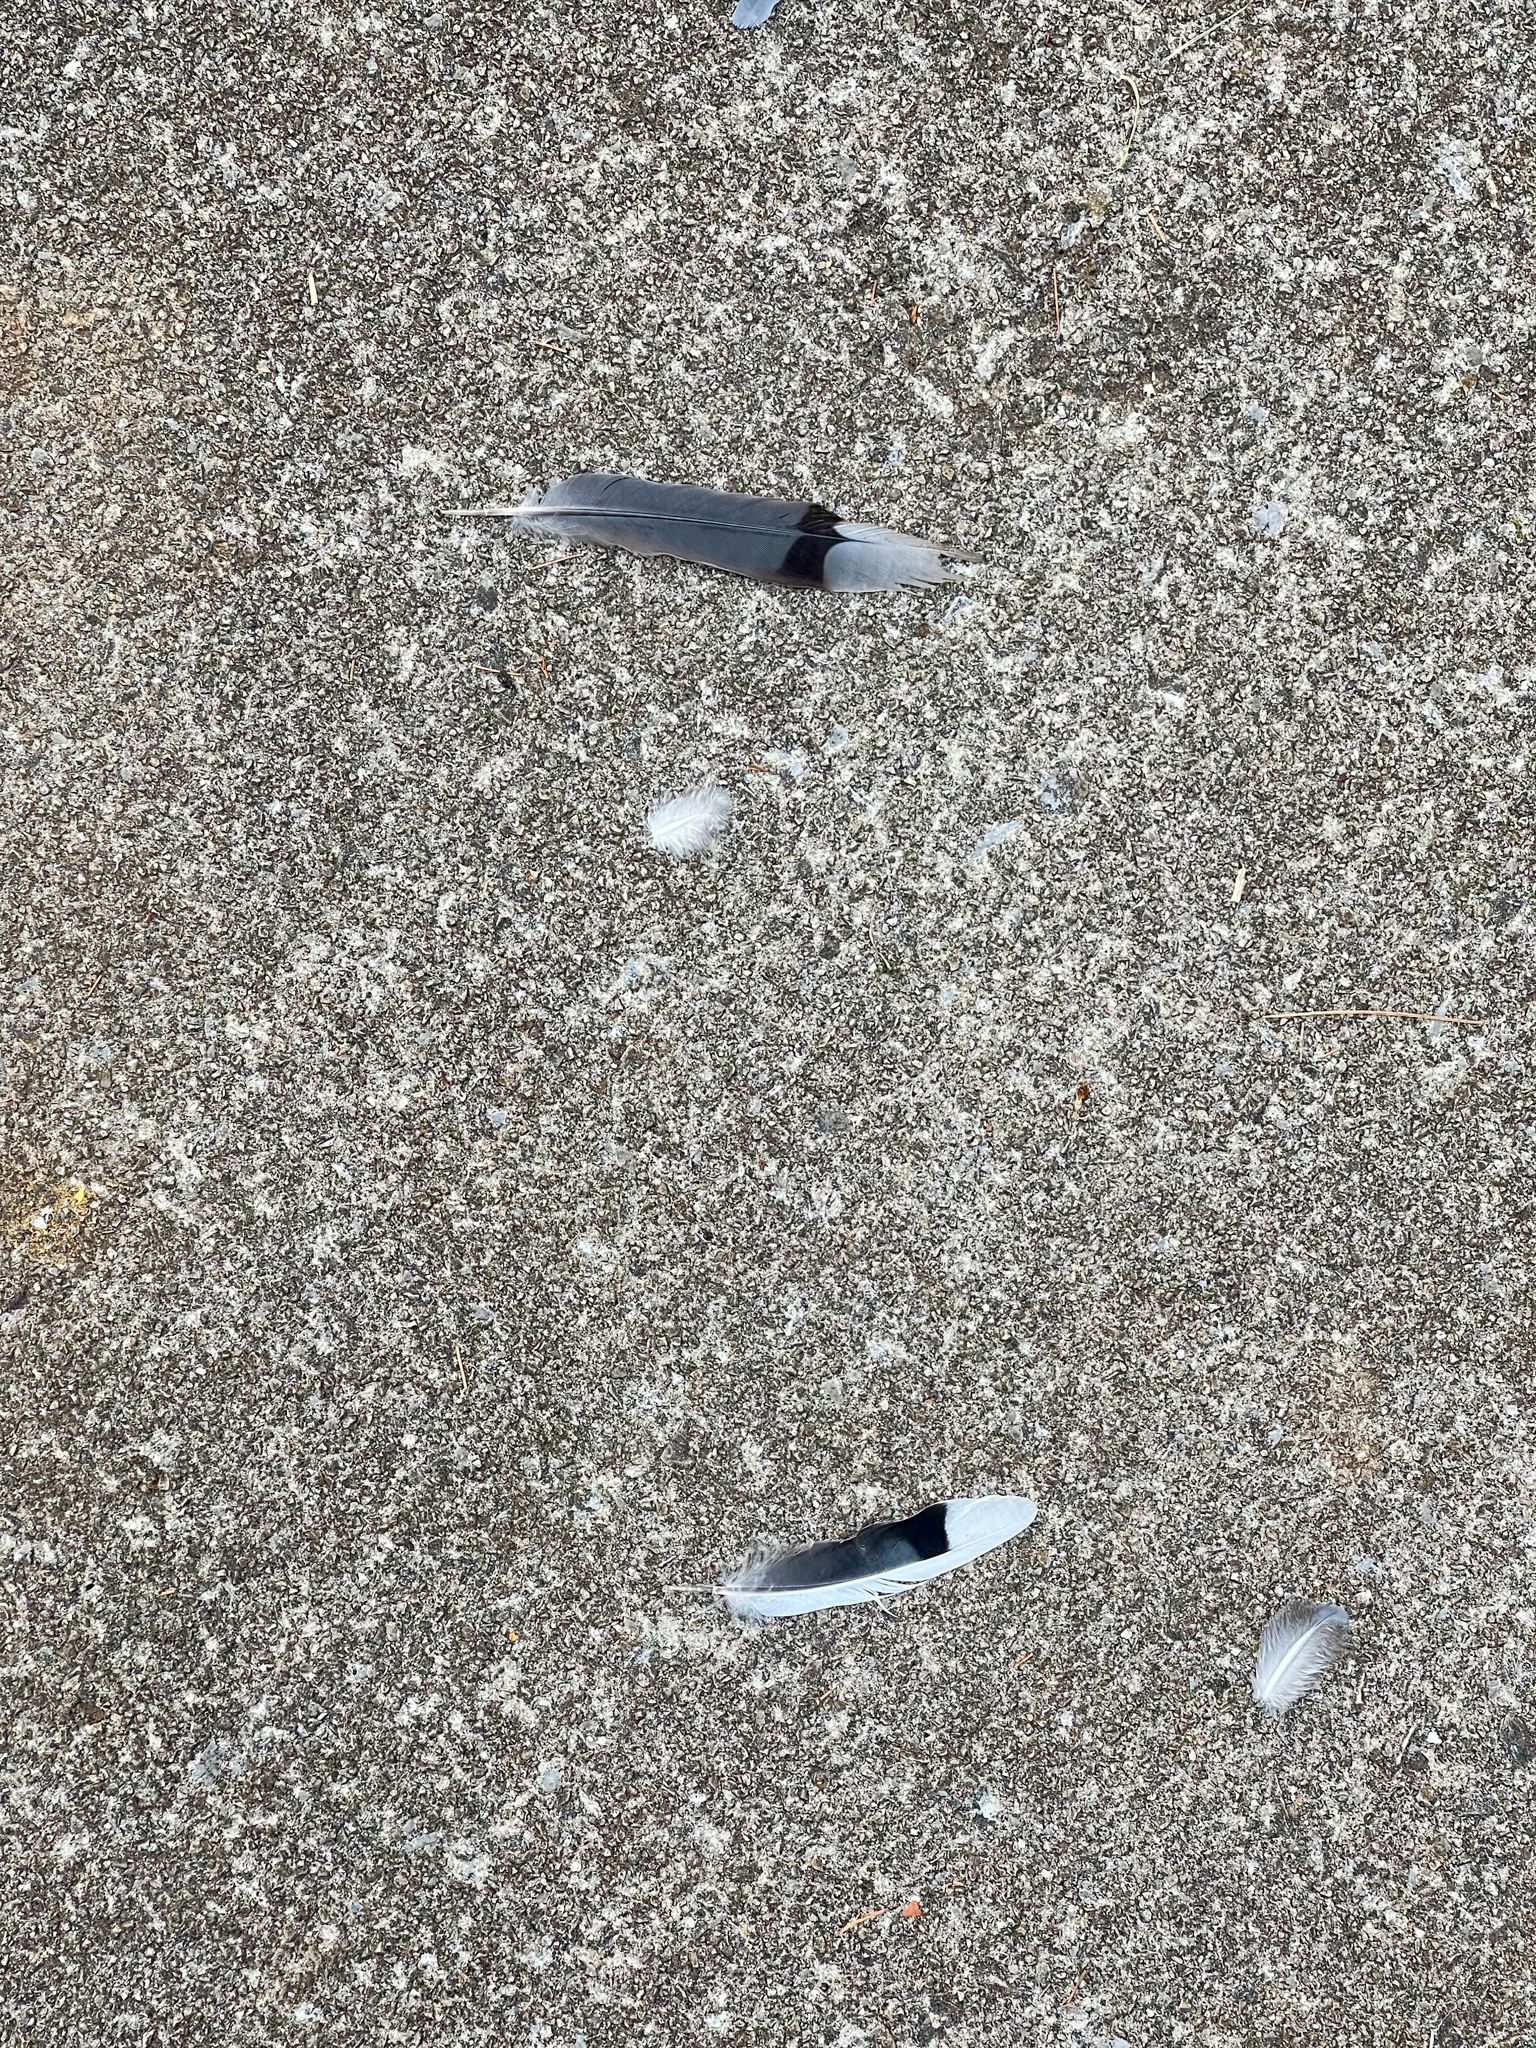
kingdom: Animalia
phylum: Chordata
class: Aves
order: Columbiformes
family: Columbidae
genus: Zenaida
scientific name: Zenaida macroura
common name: Mourning dove
